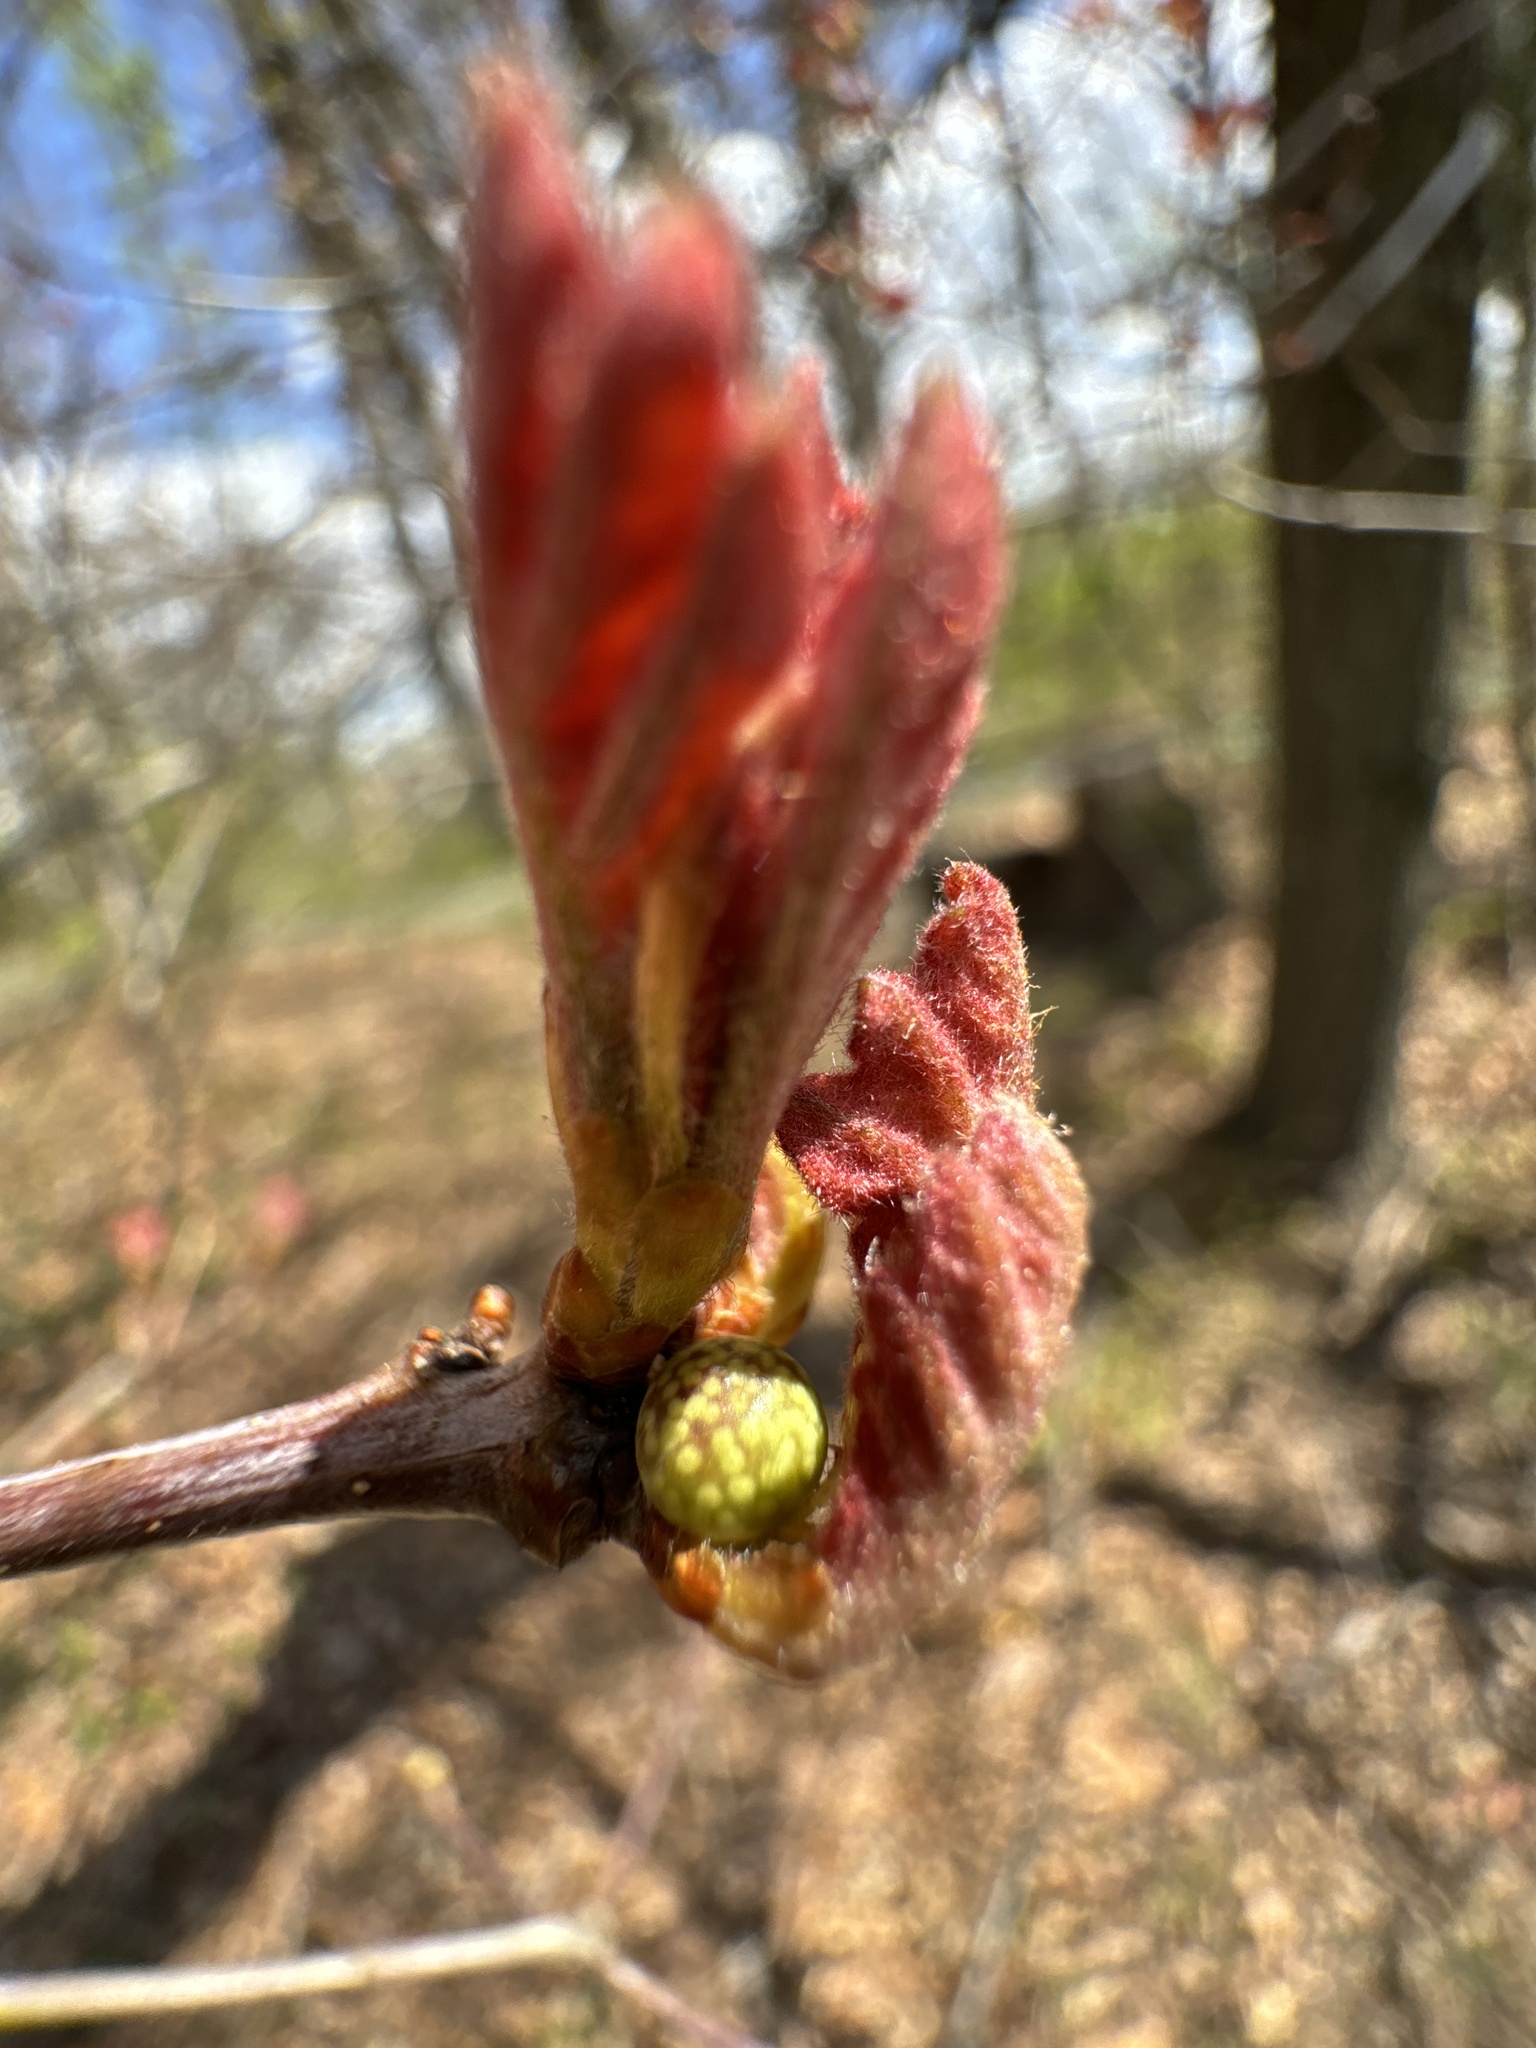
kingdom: Animalia
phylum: Arthropoda
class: Insecta
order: Hymenoptera
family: Cynipidae
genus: Andricus
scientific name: Andricus
